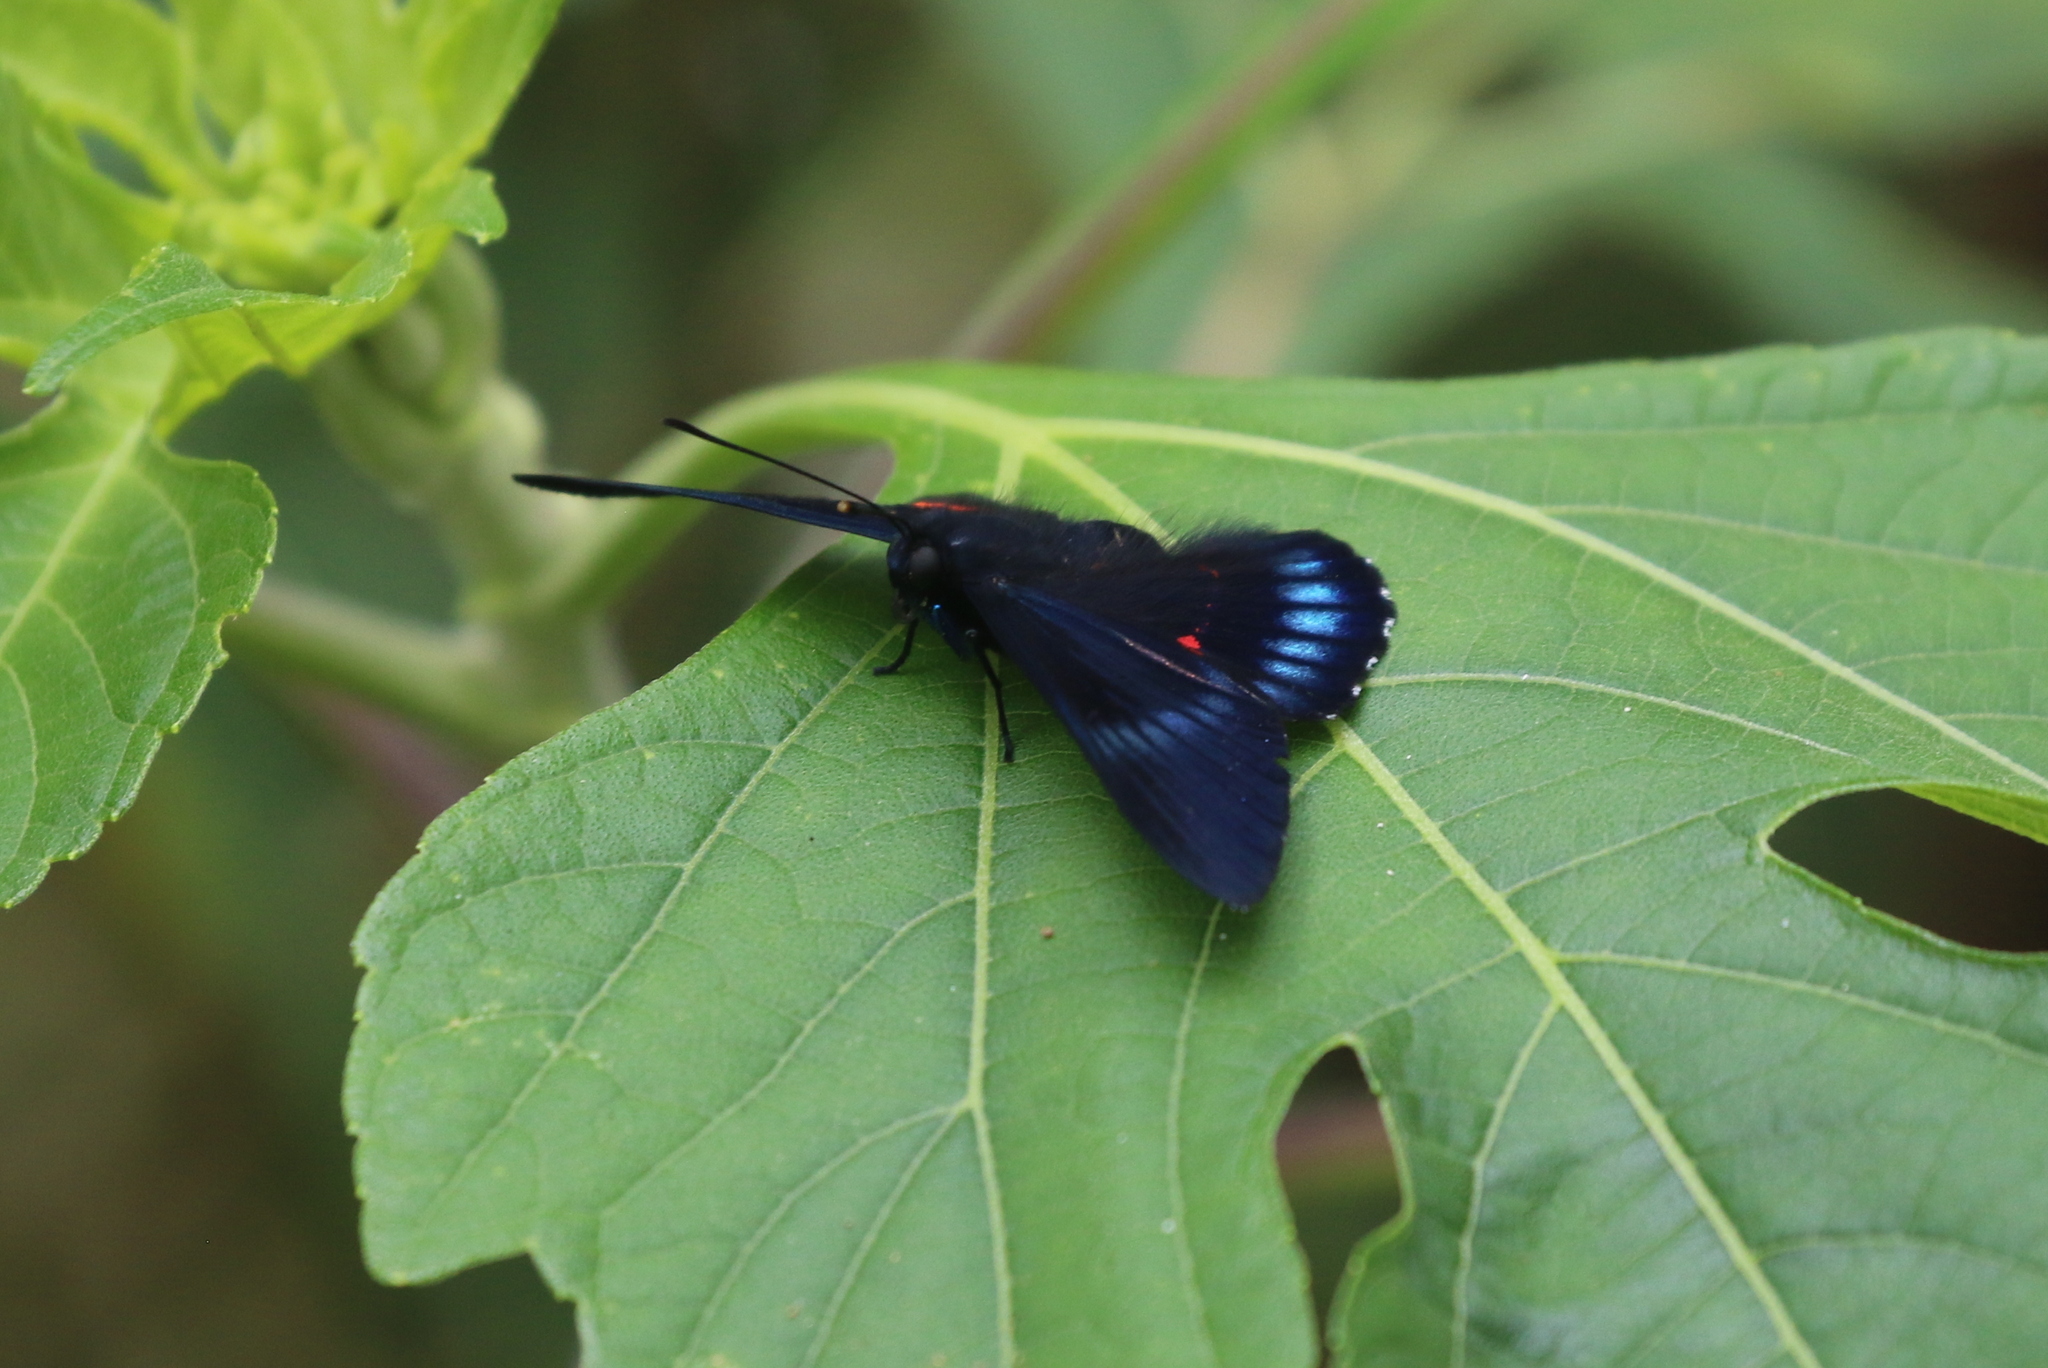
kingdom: Animalia
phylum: Arthropoda
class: Insecta
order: Lepidoptera
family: Lycaenidae
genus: Necyria
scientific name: Necyria bellona
